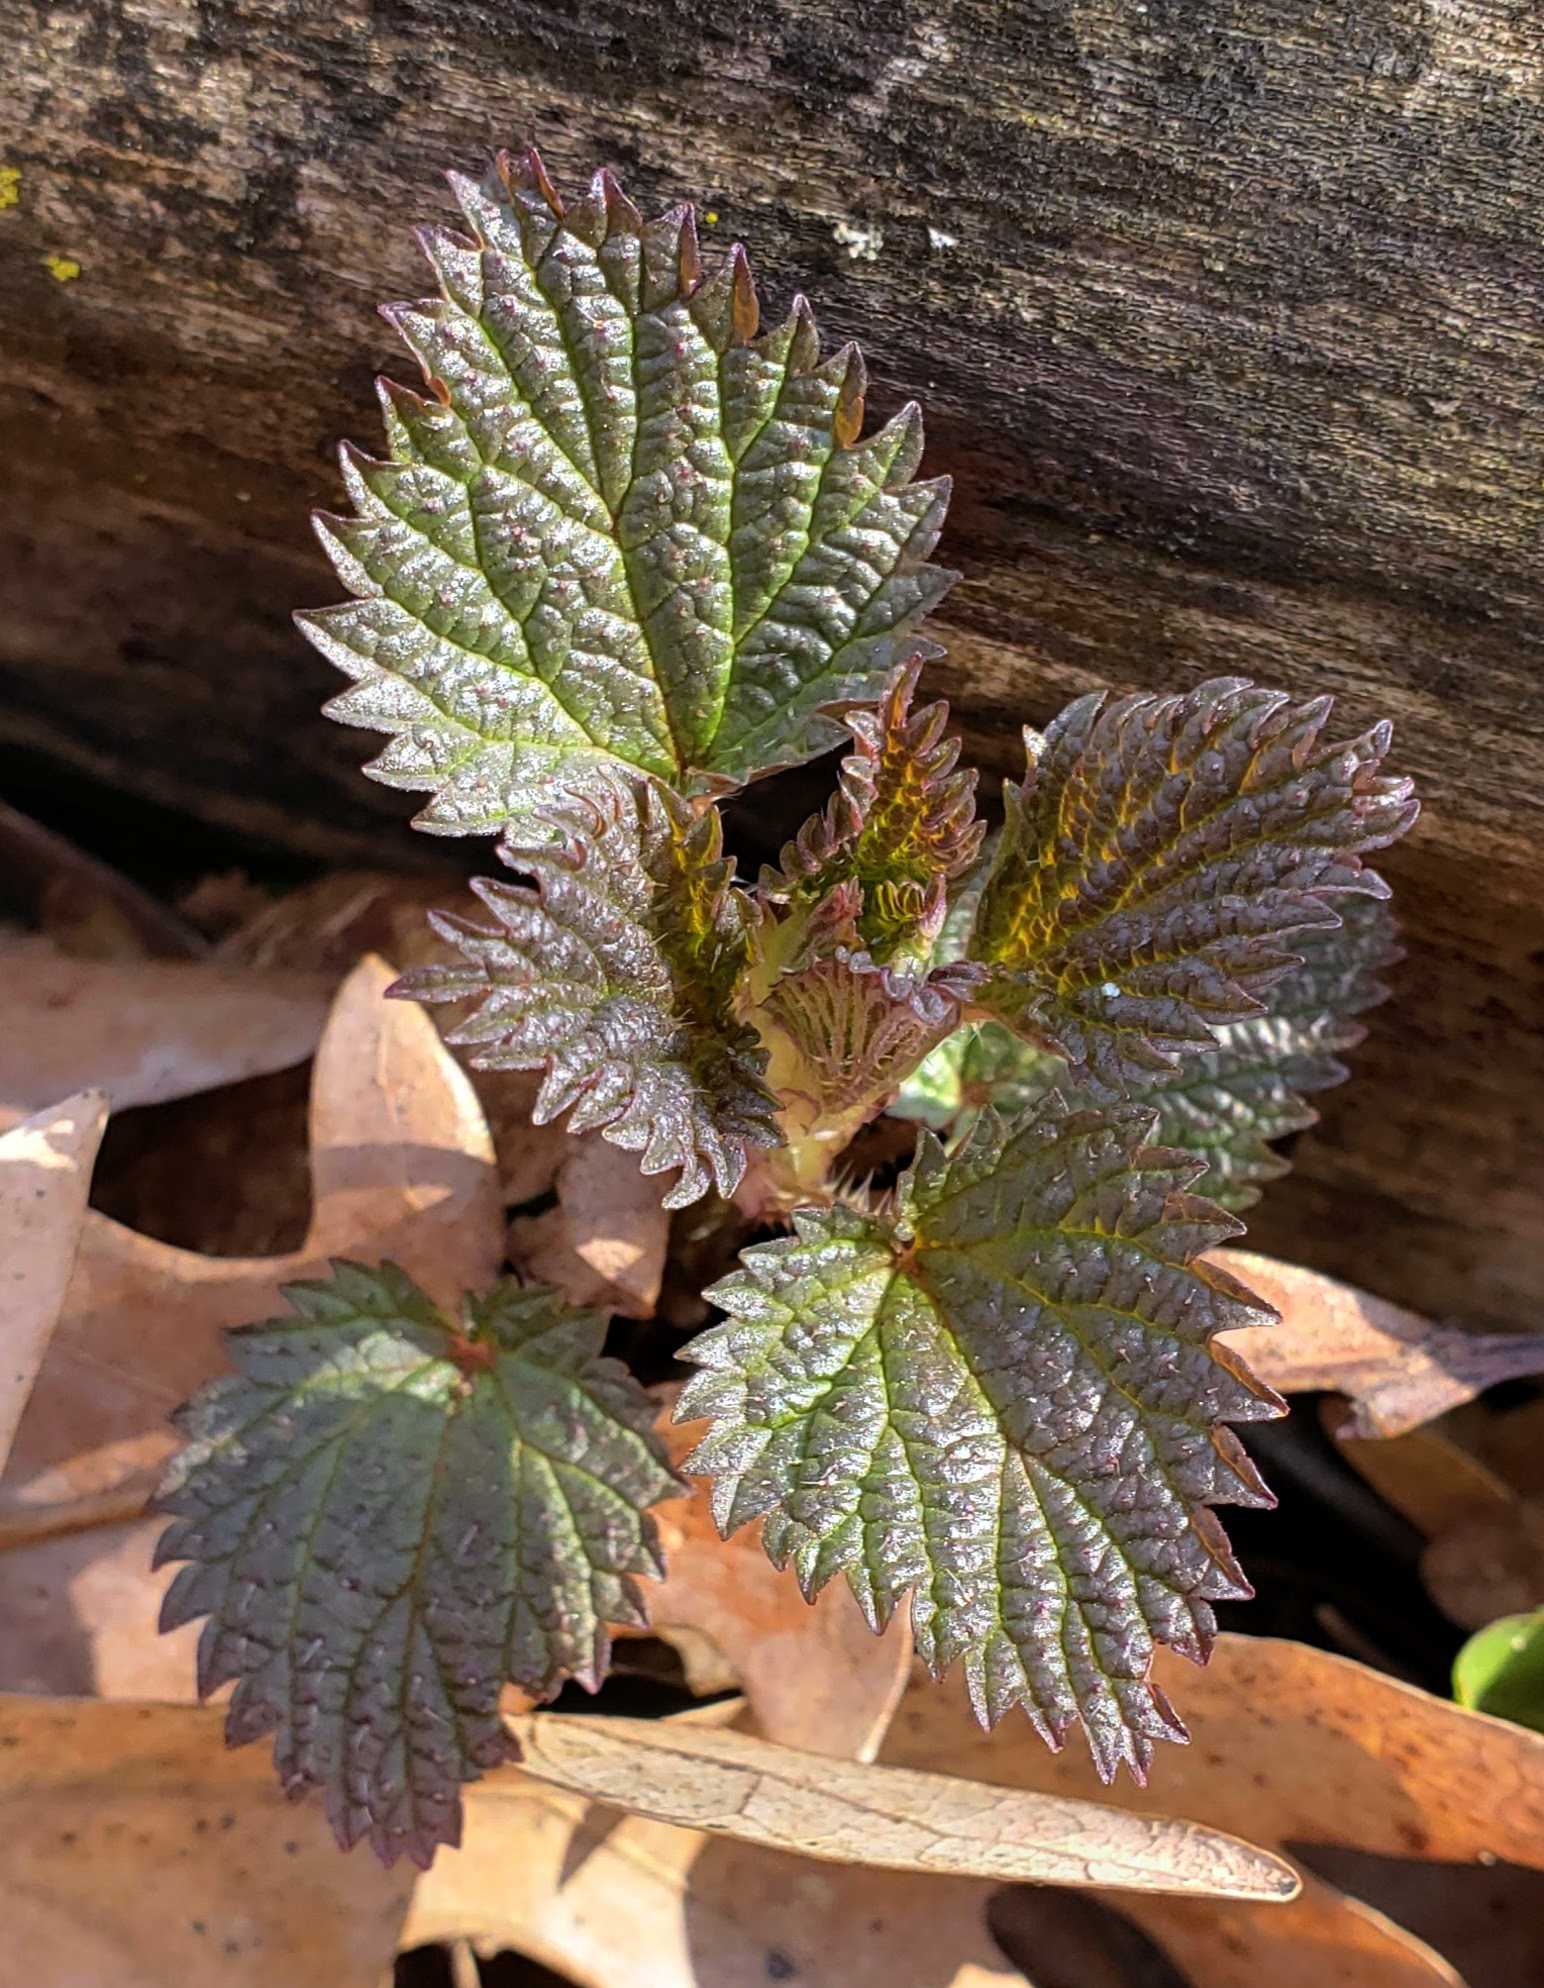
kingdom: Plantae
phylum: Tracheophyta
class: Magnoliopsida
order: Rosales
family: Urticaceae
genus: Urtica
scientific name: Urtica dioica
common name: Common nettle
